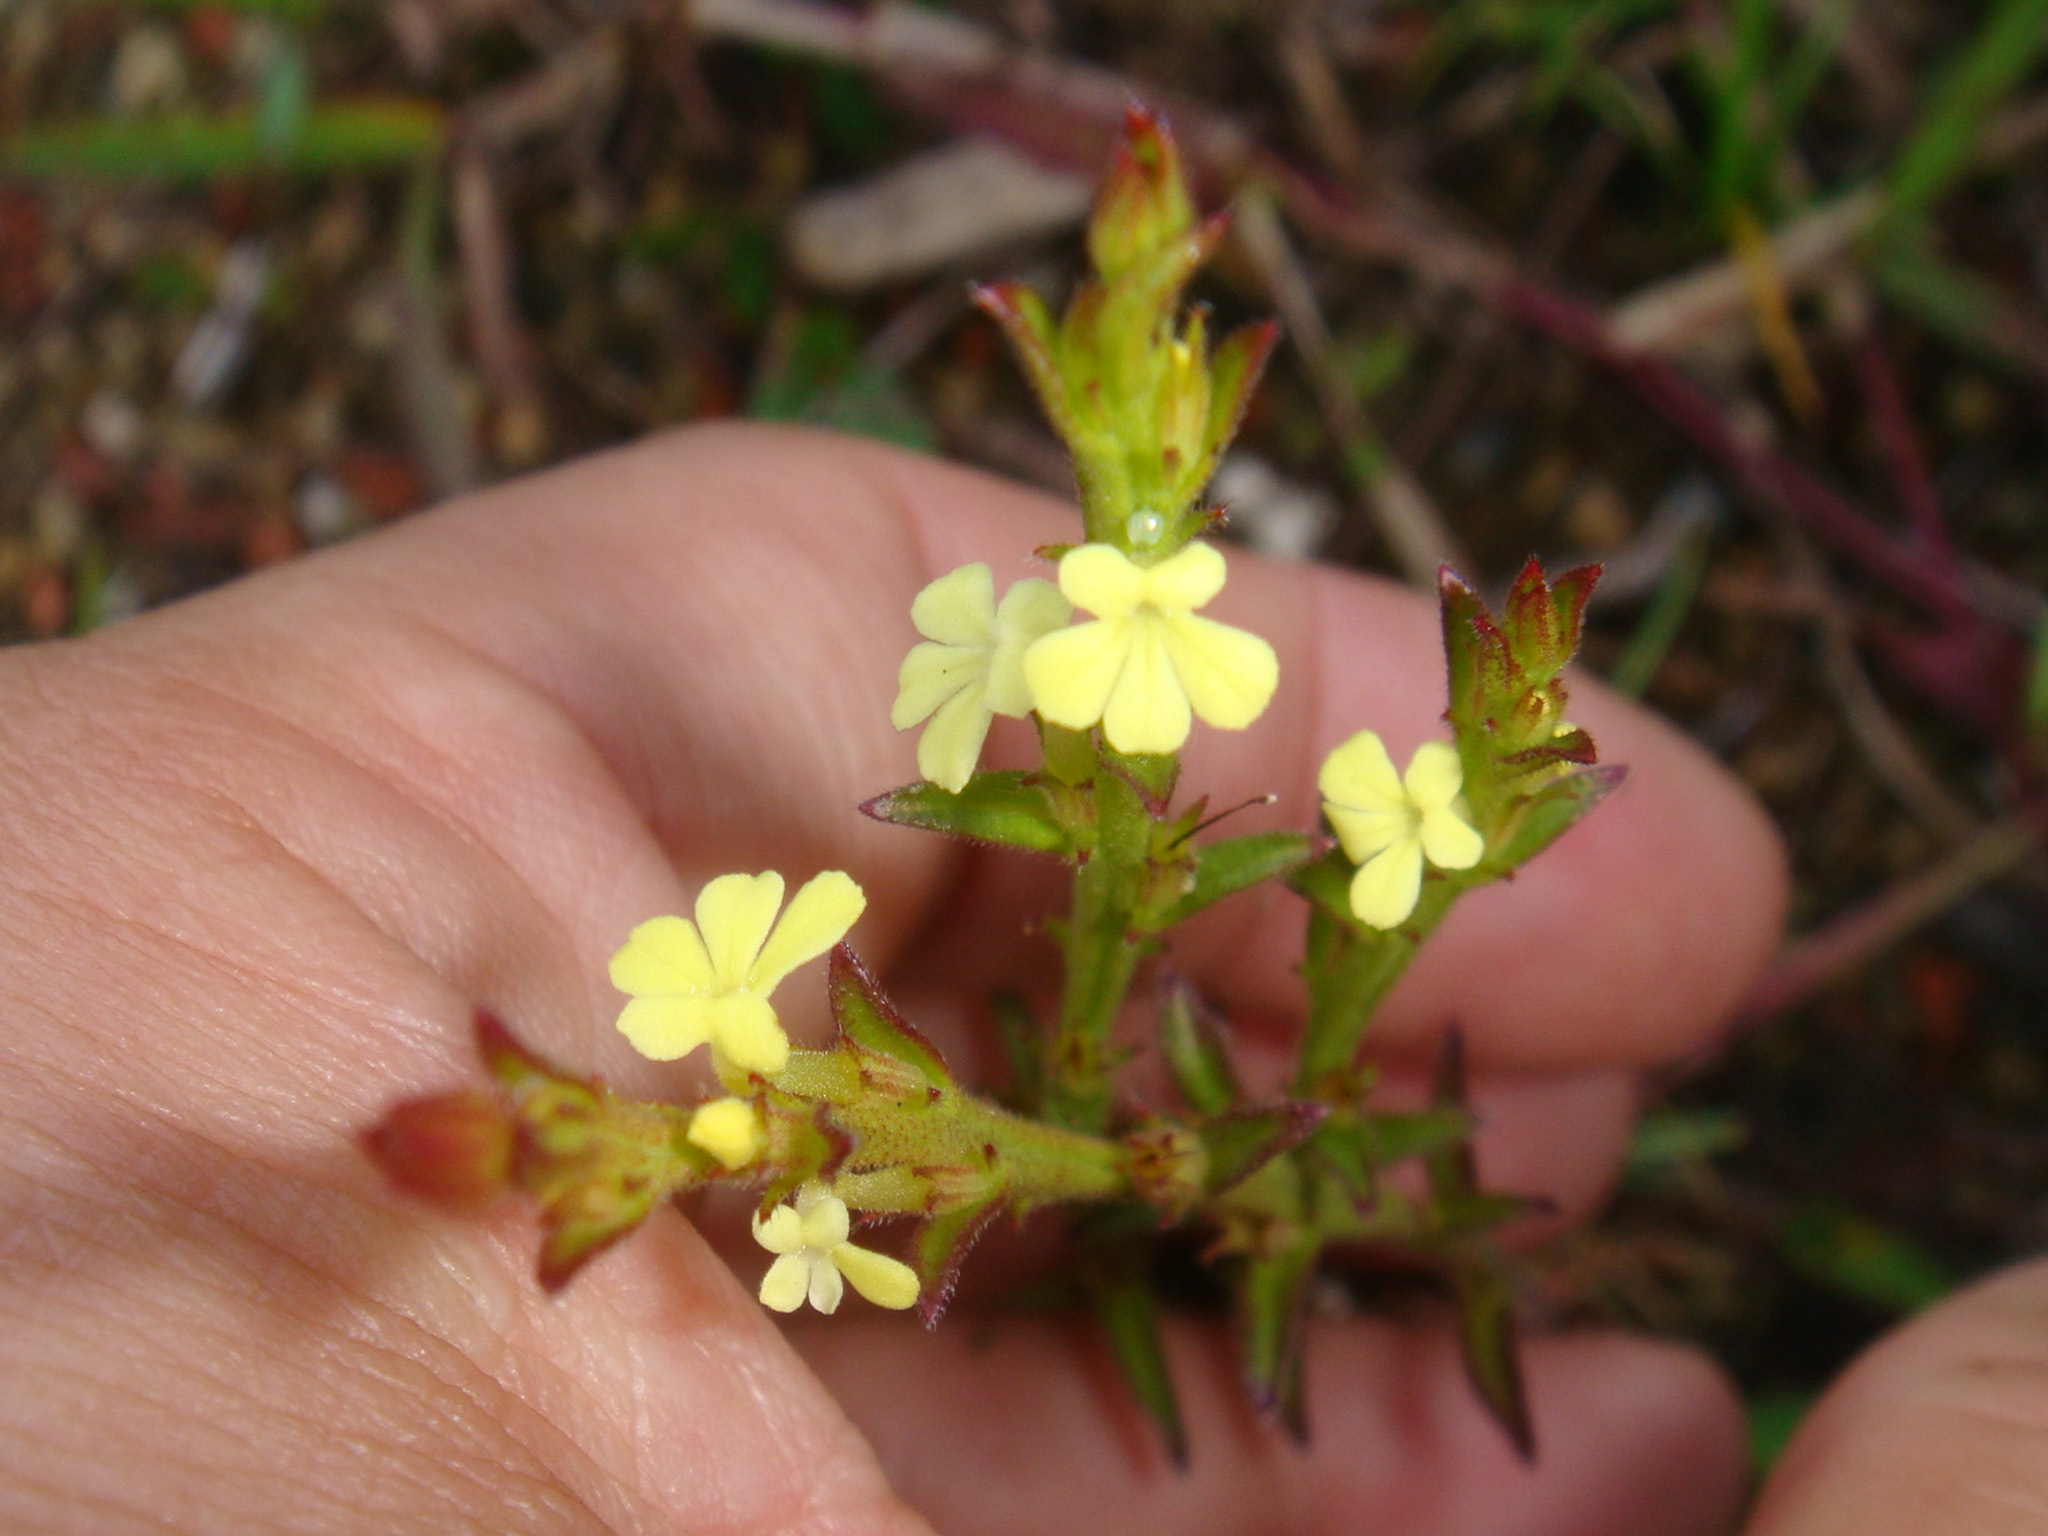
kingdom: Plantae
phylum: Tracheophyta
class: Magnoliopsida
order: Lamiales
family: Orobanchaceae
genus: Striga
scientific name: Striga asiatica
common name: Asiatic witchweed
